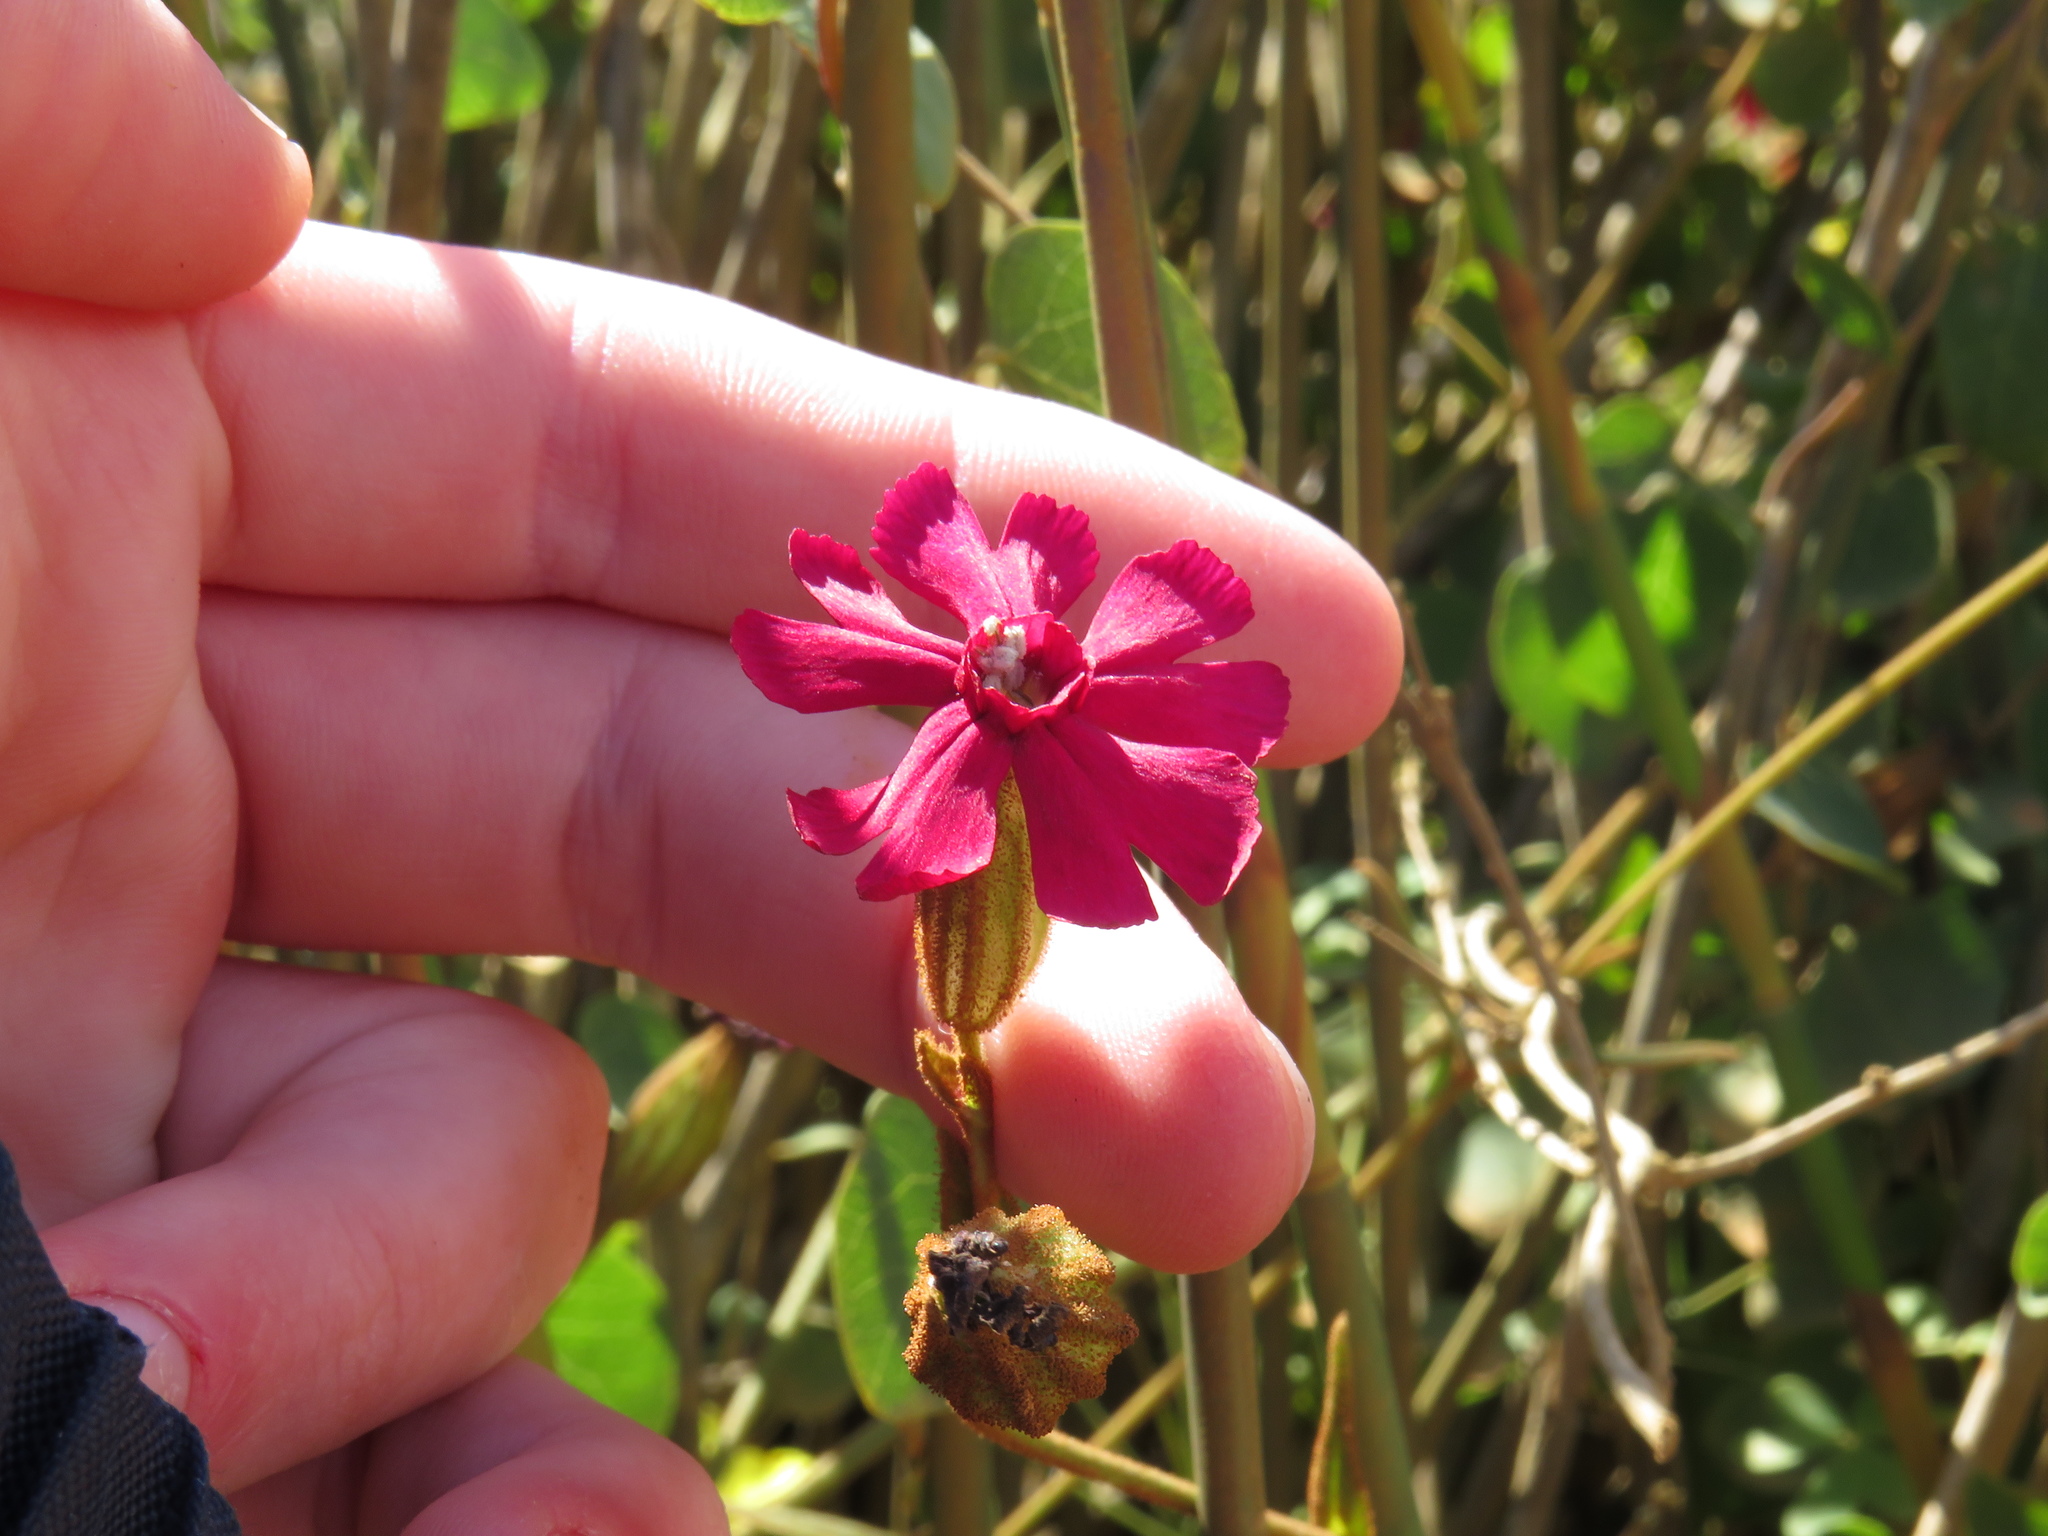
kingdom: Plantae
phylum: Tracheophyta
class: Magnoliopsida
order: Caryophyllales
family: Caryophyllaceae
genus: Silene
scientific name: Silene ornata
